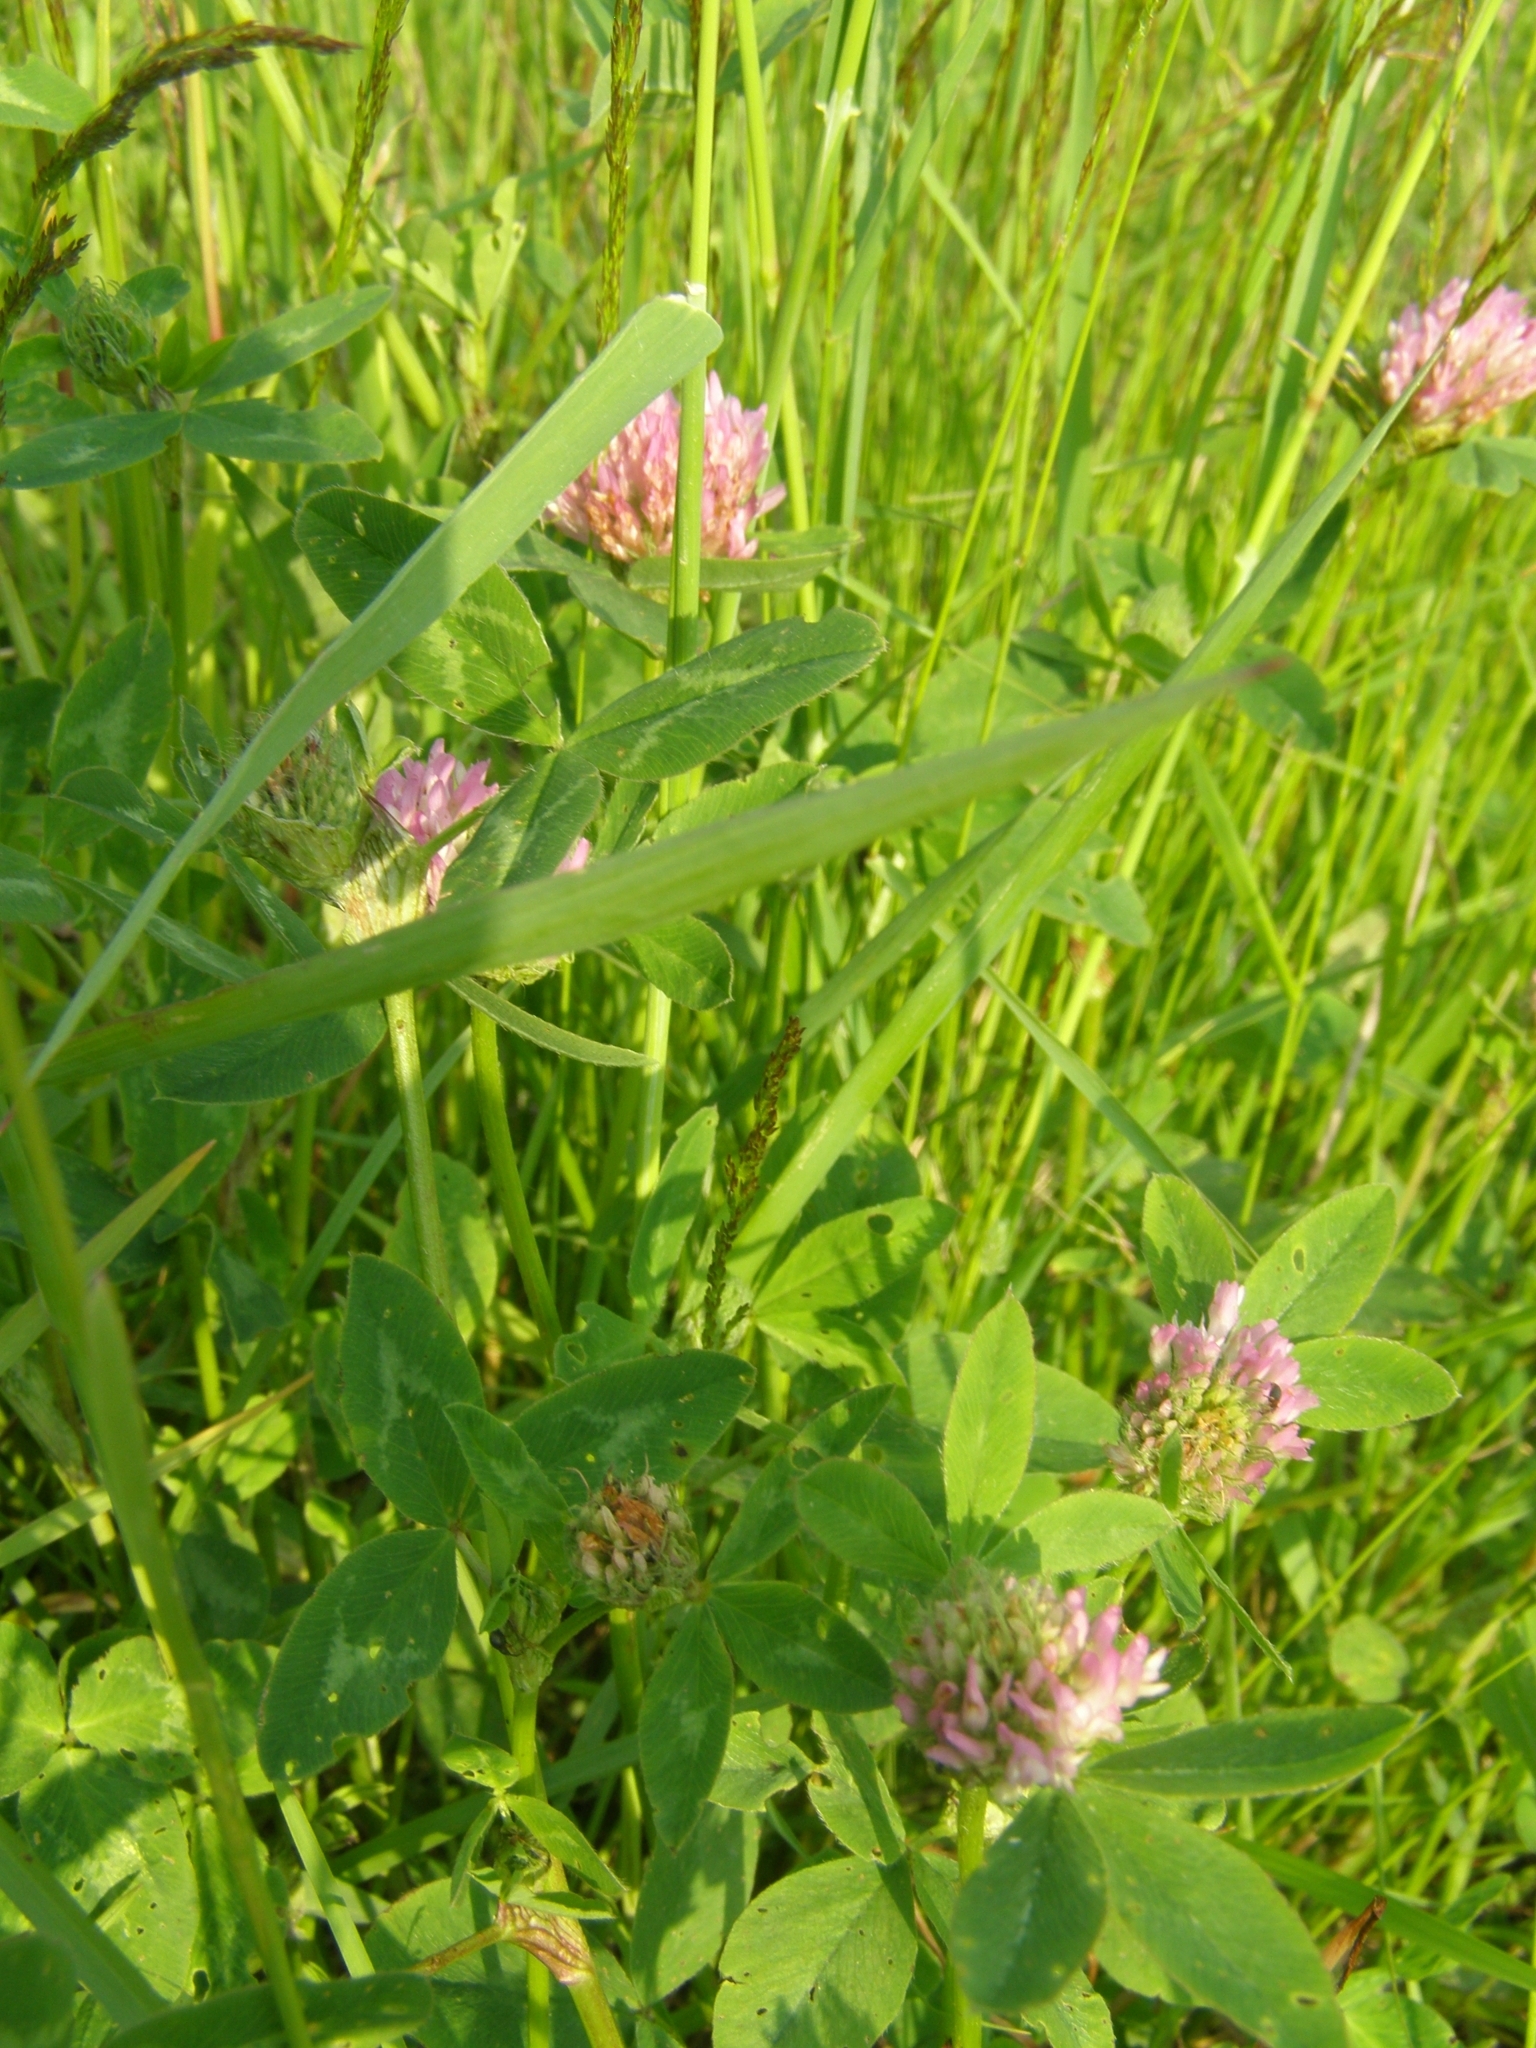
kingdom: Plantae
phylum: Tracheophyta
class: Magnoliopsida
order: Fabales
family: Fabaceae
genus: Trifolium
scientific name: Trifolium pratense
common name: Red clover
